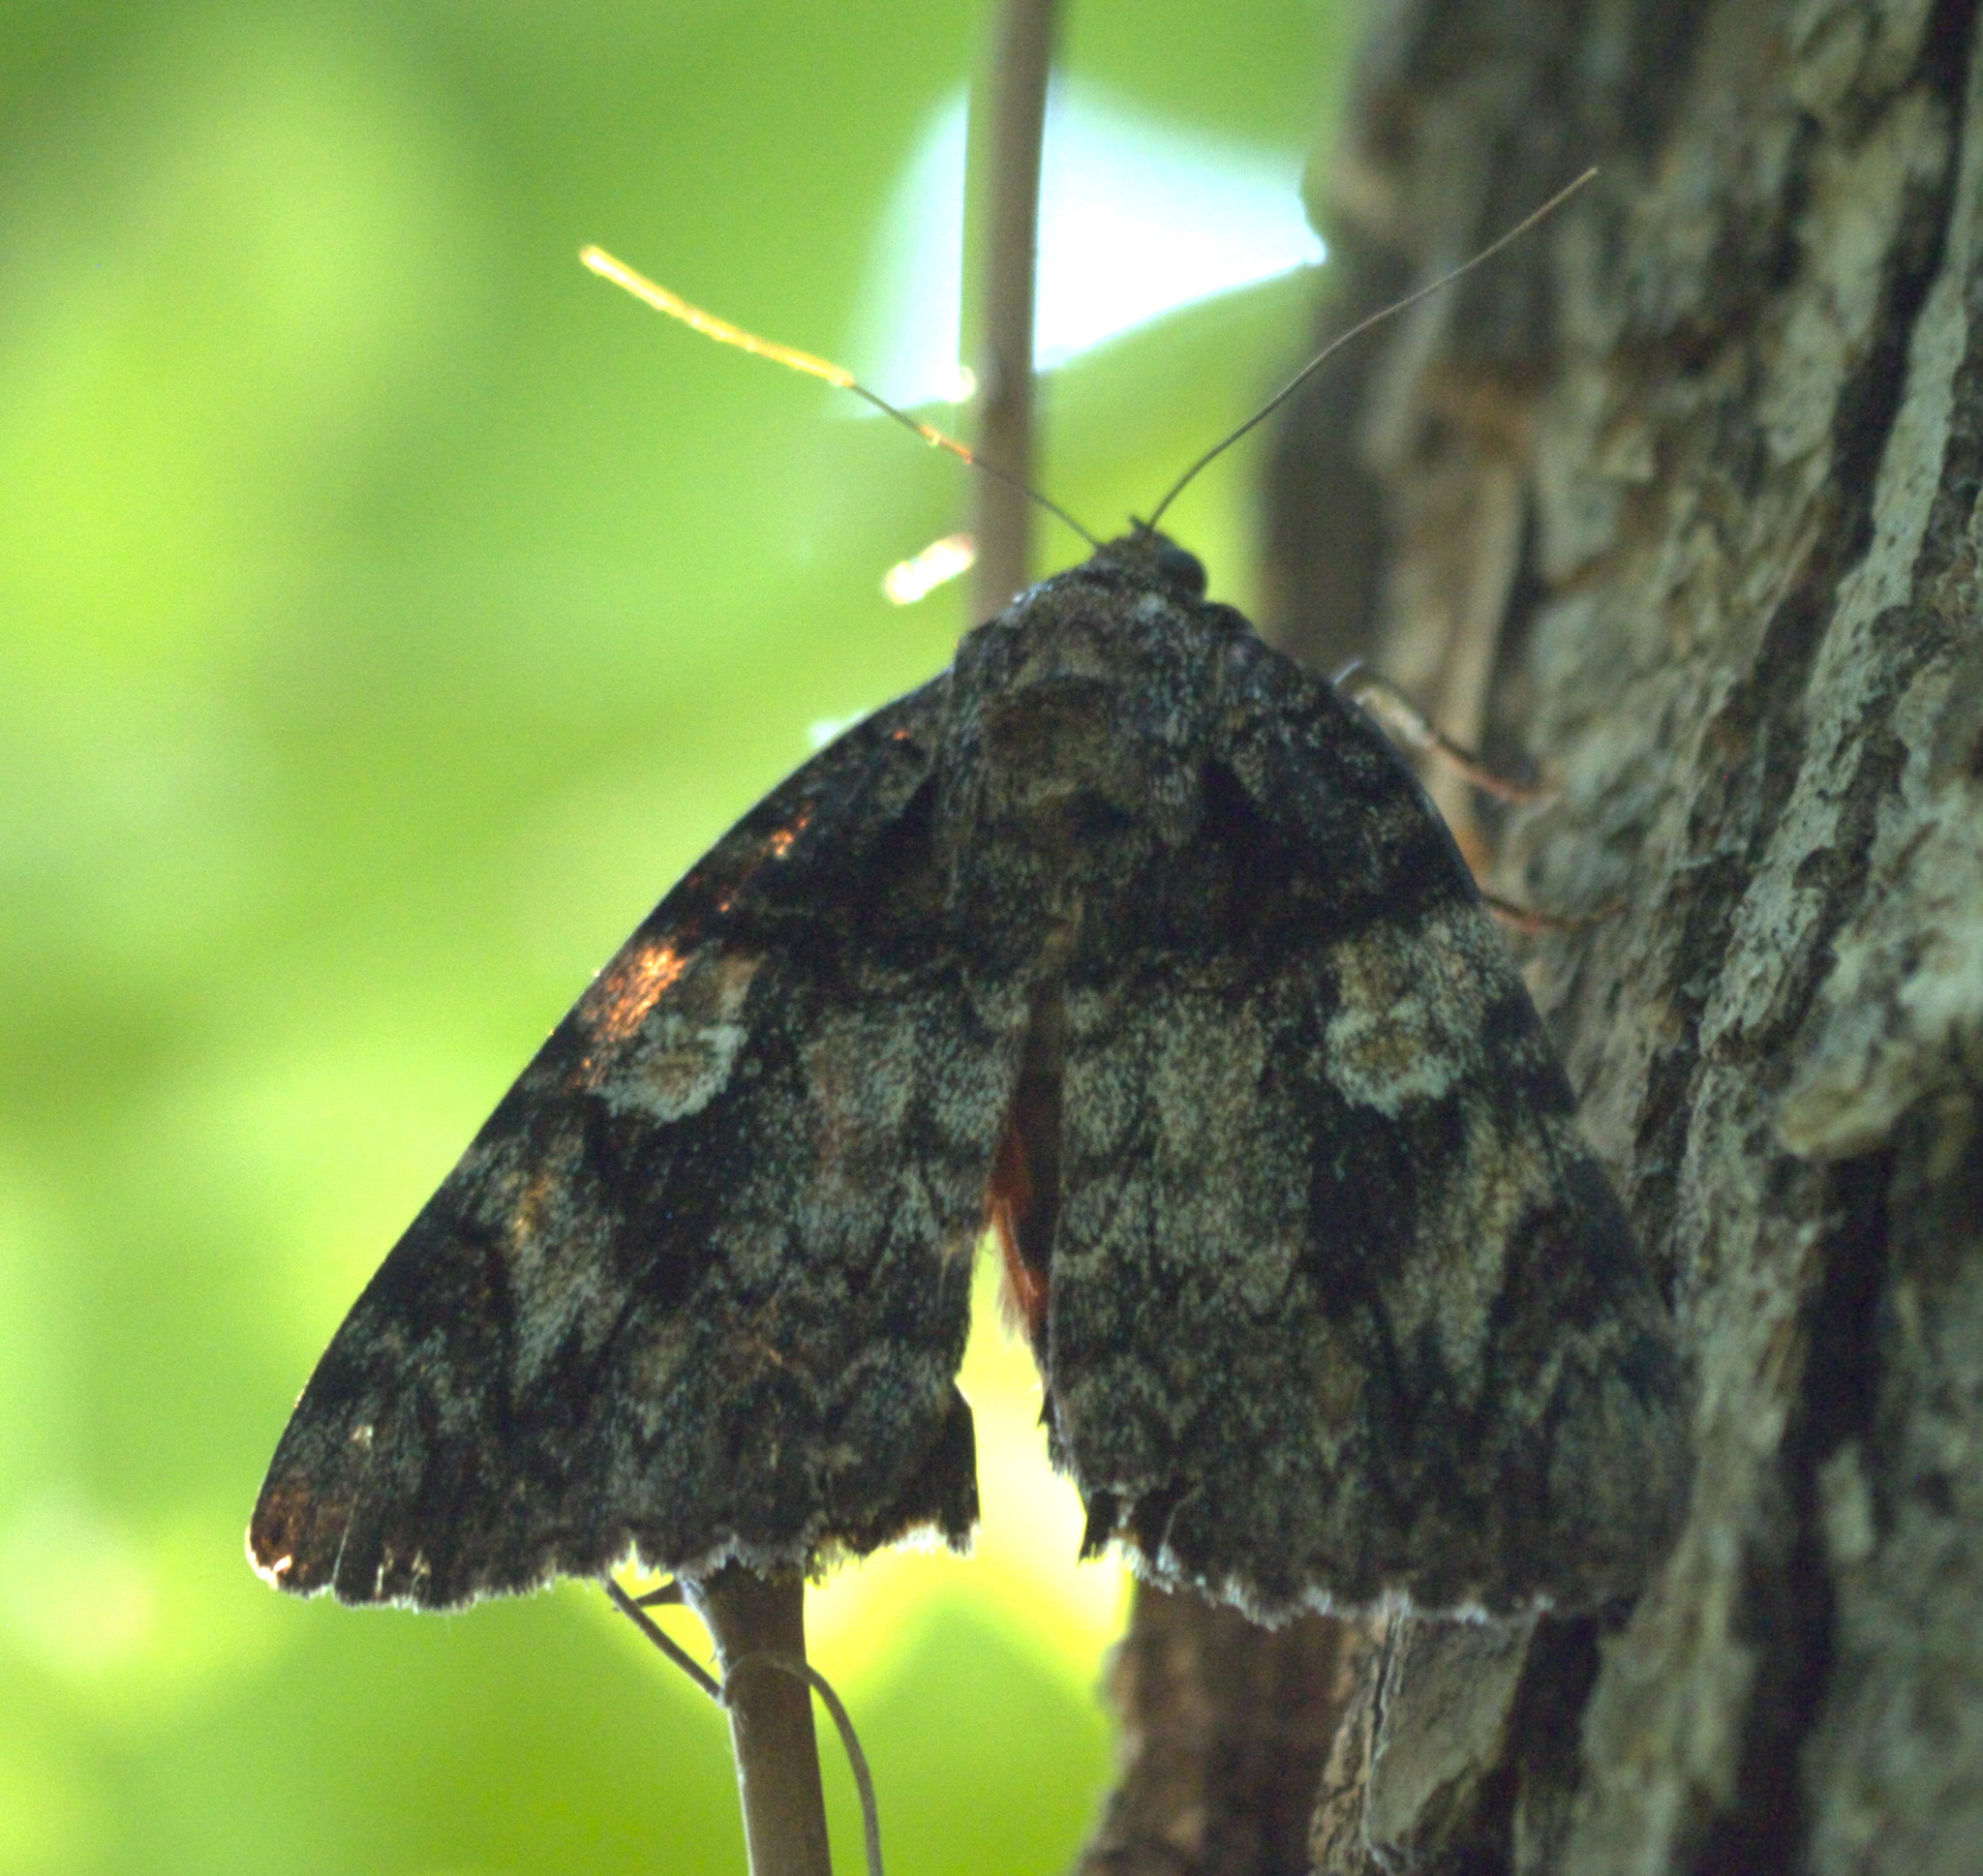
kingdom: Animalia
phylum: Arthropoda
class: Insecta
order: Lepidoptera
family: Erebidae
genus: Catocala
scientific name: Catocala ilia
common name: Ilia underwing
